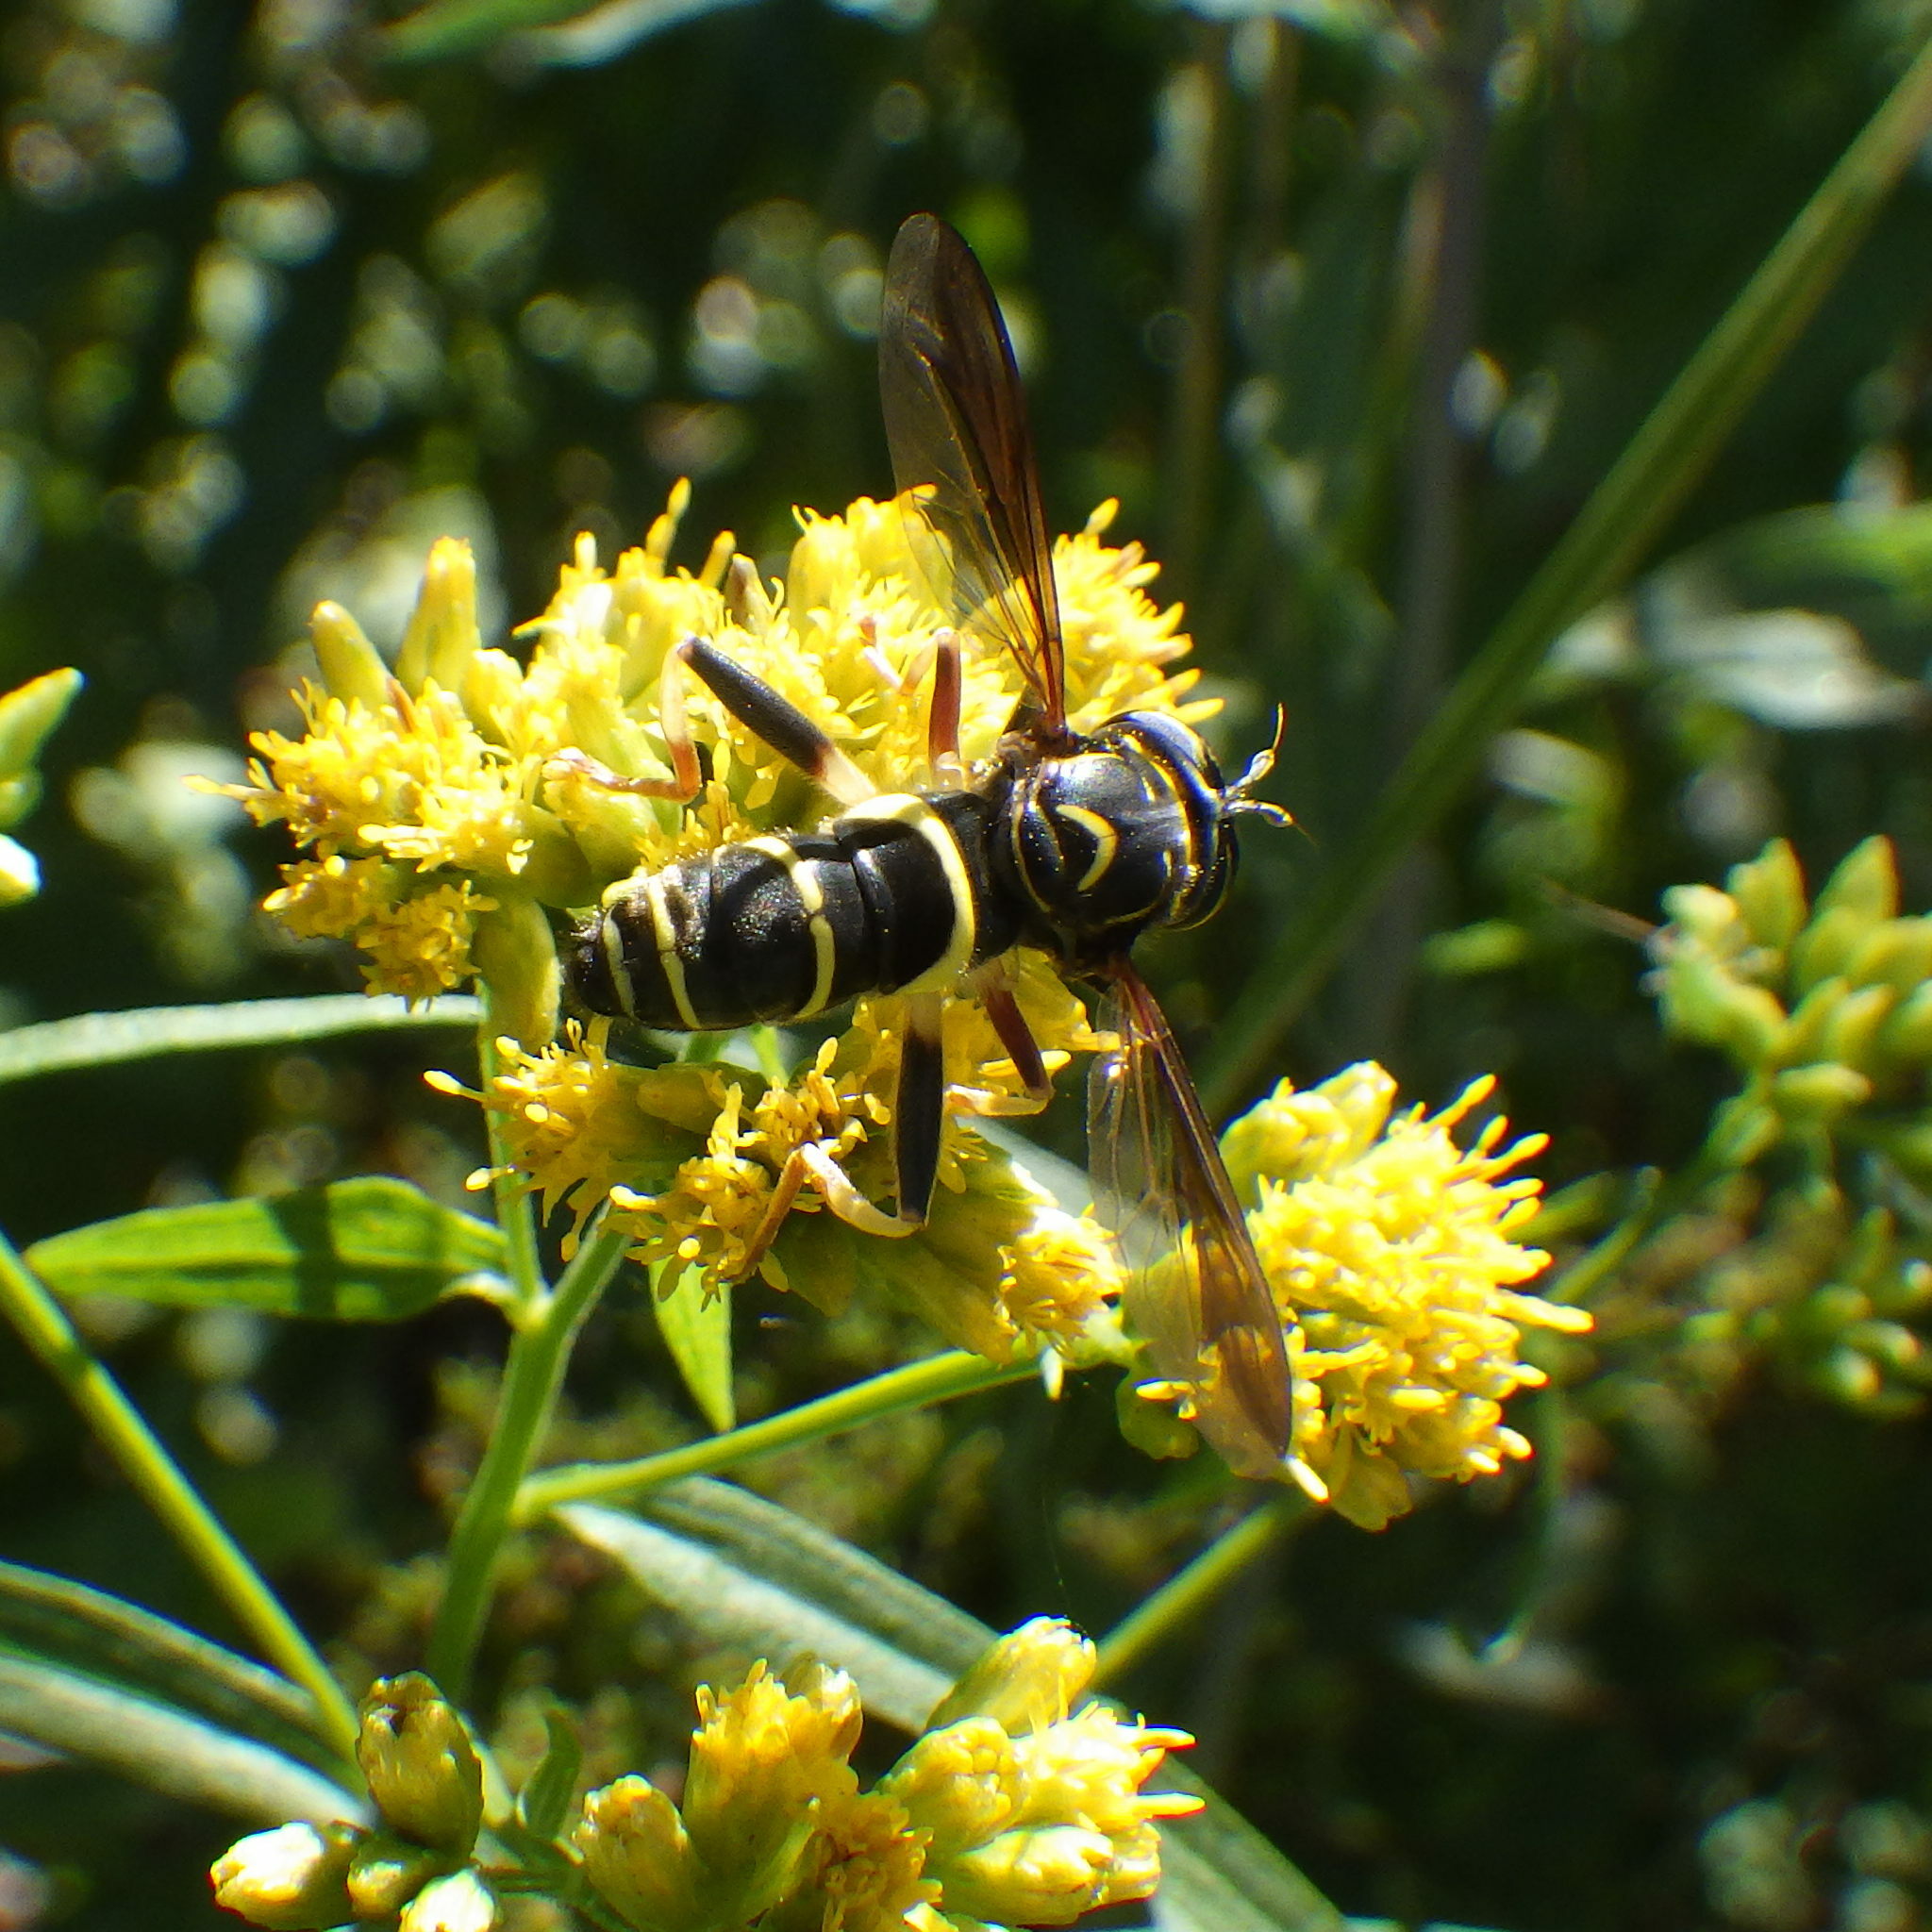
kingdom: Animalia
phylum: Arthropoda
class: Insecta
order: Diptera
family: Syrphidae
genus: Spilomyia
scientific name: Spilomyia sayi
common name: Four-lined hornet fly
